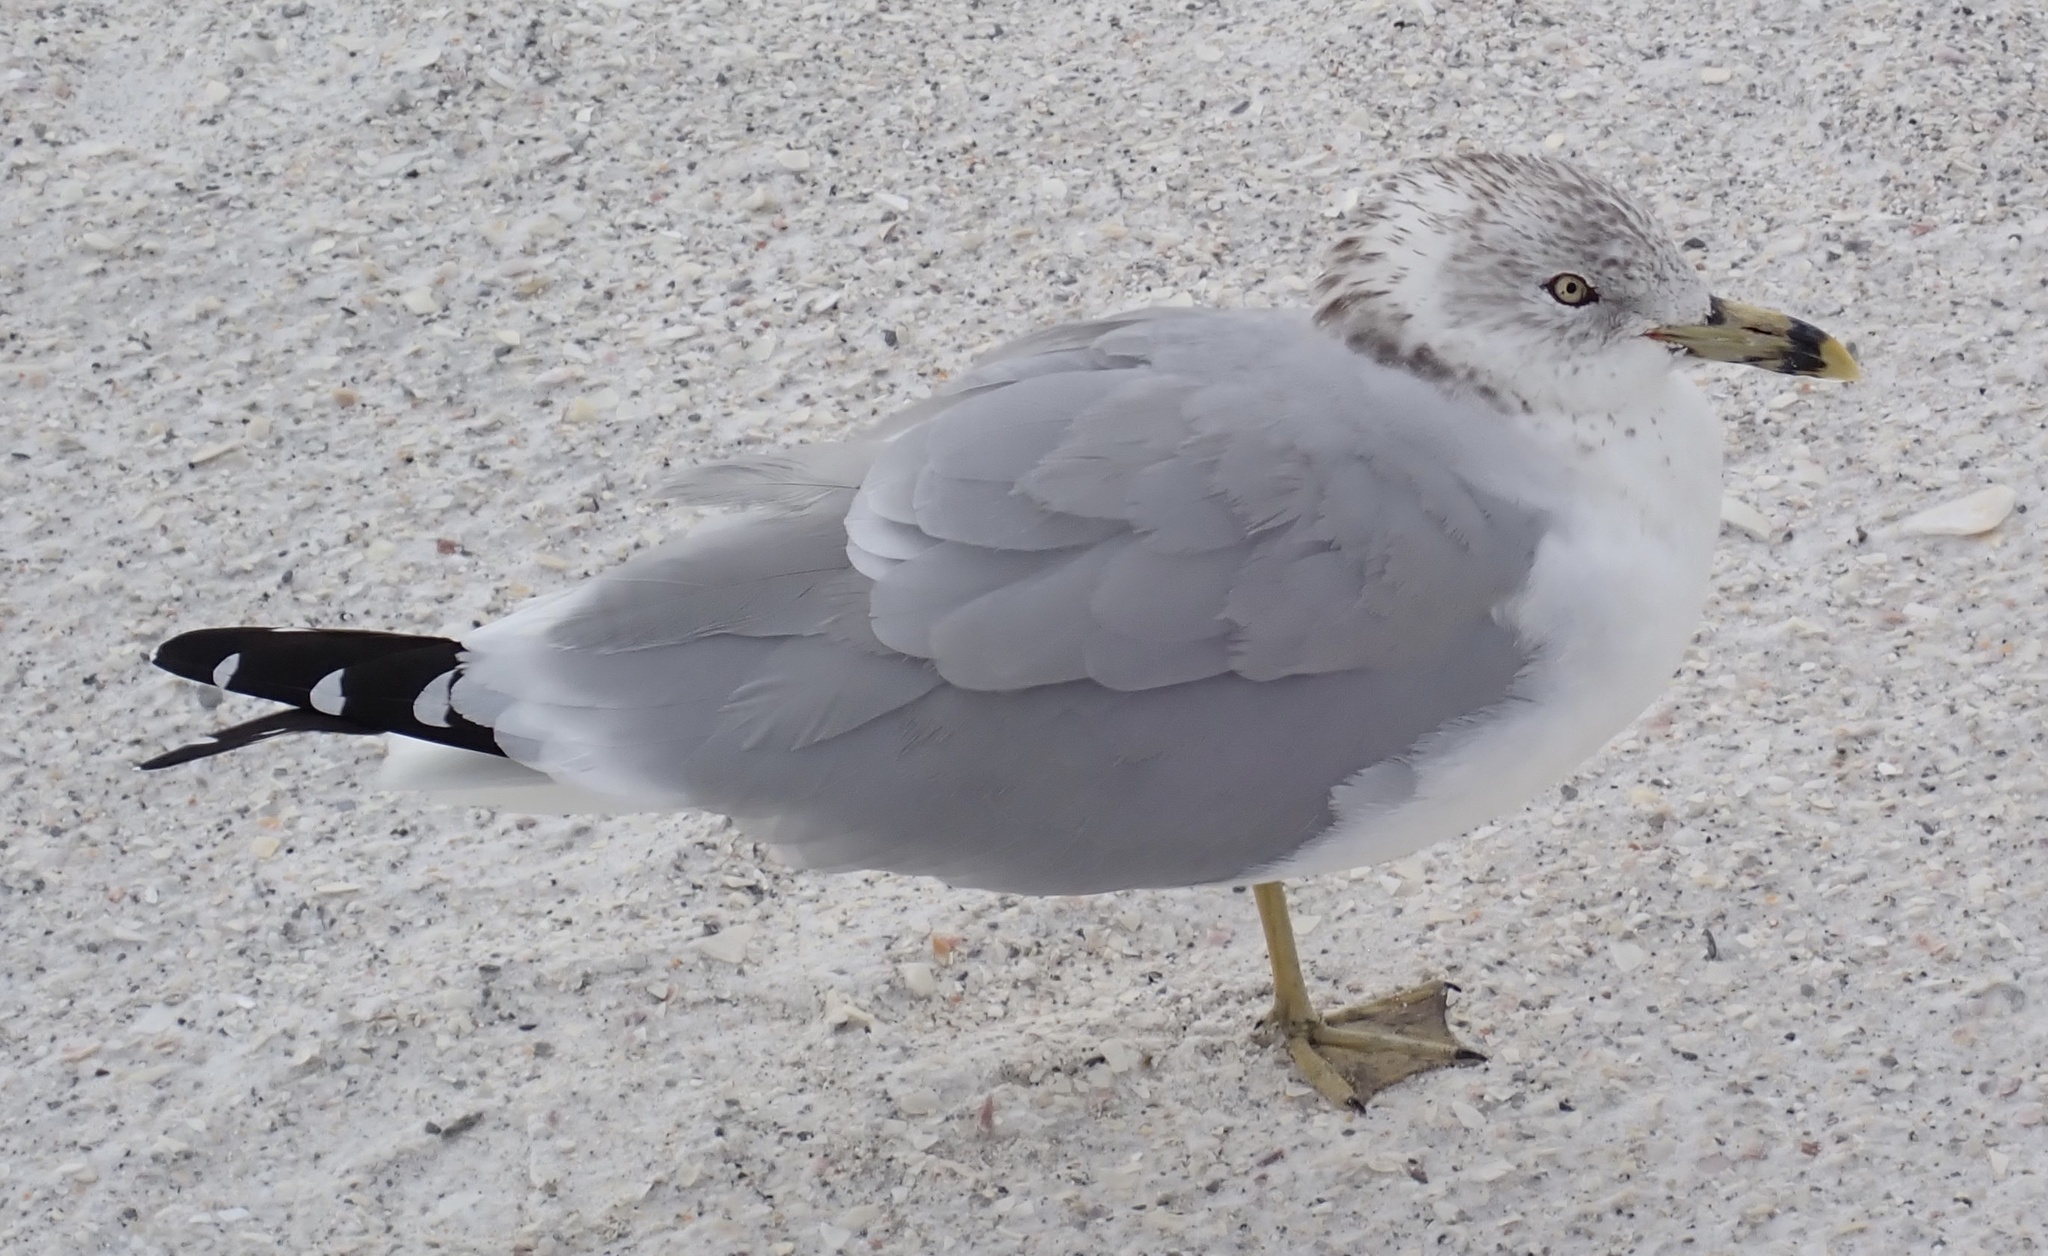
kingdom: Animalia
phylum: Chordata
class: Aves
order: Charadriiformes
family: Laridae
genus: Larus
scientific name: Larus delawarensis
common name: Ring-billed gull
